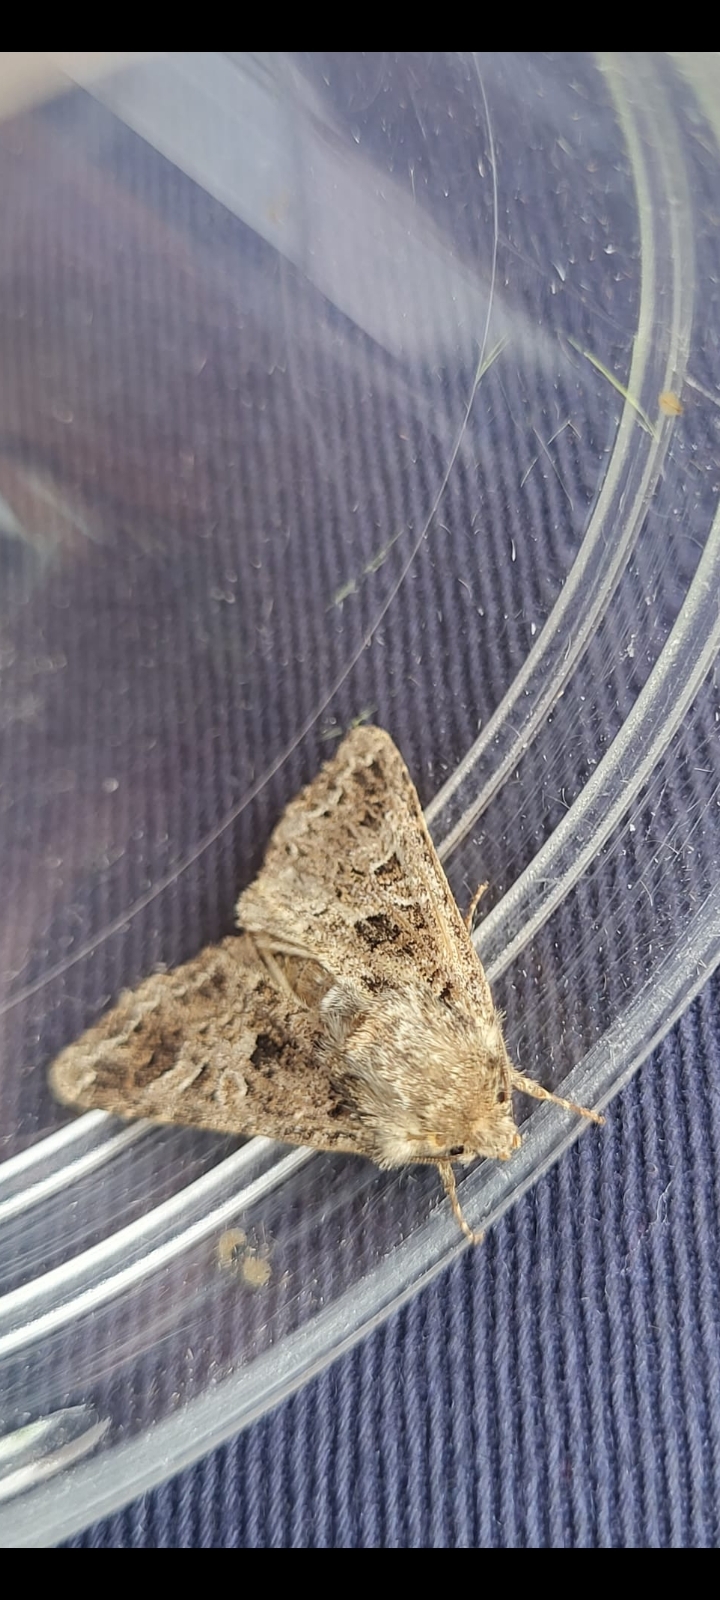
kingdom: Animalia
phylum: Arthropoda
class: Insecta
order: Lepidoptera
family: Noctuidae
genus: Hadena
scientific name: Hadena bicruris
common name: Lychnis
